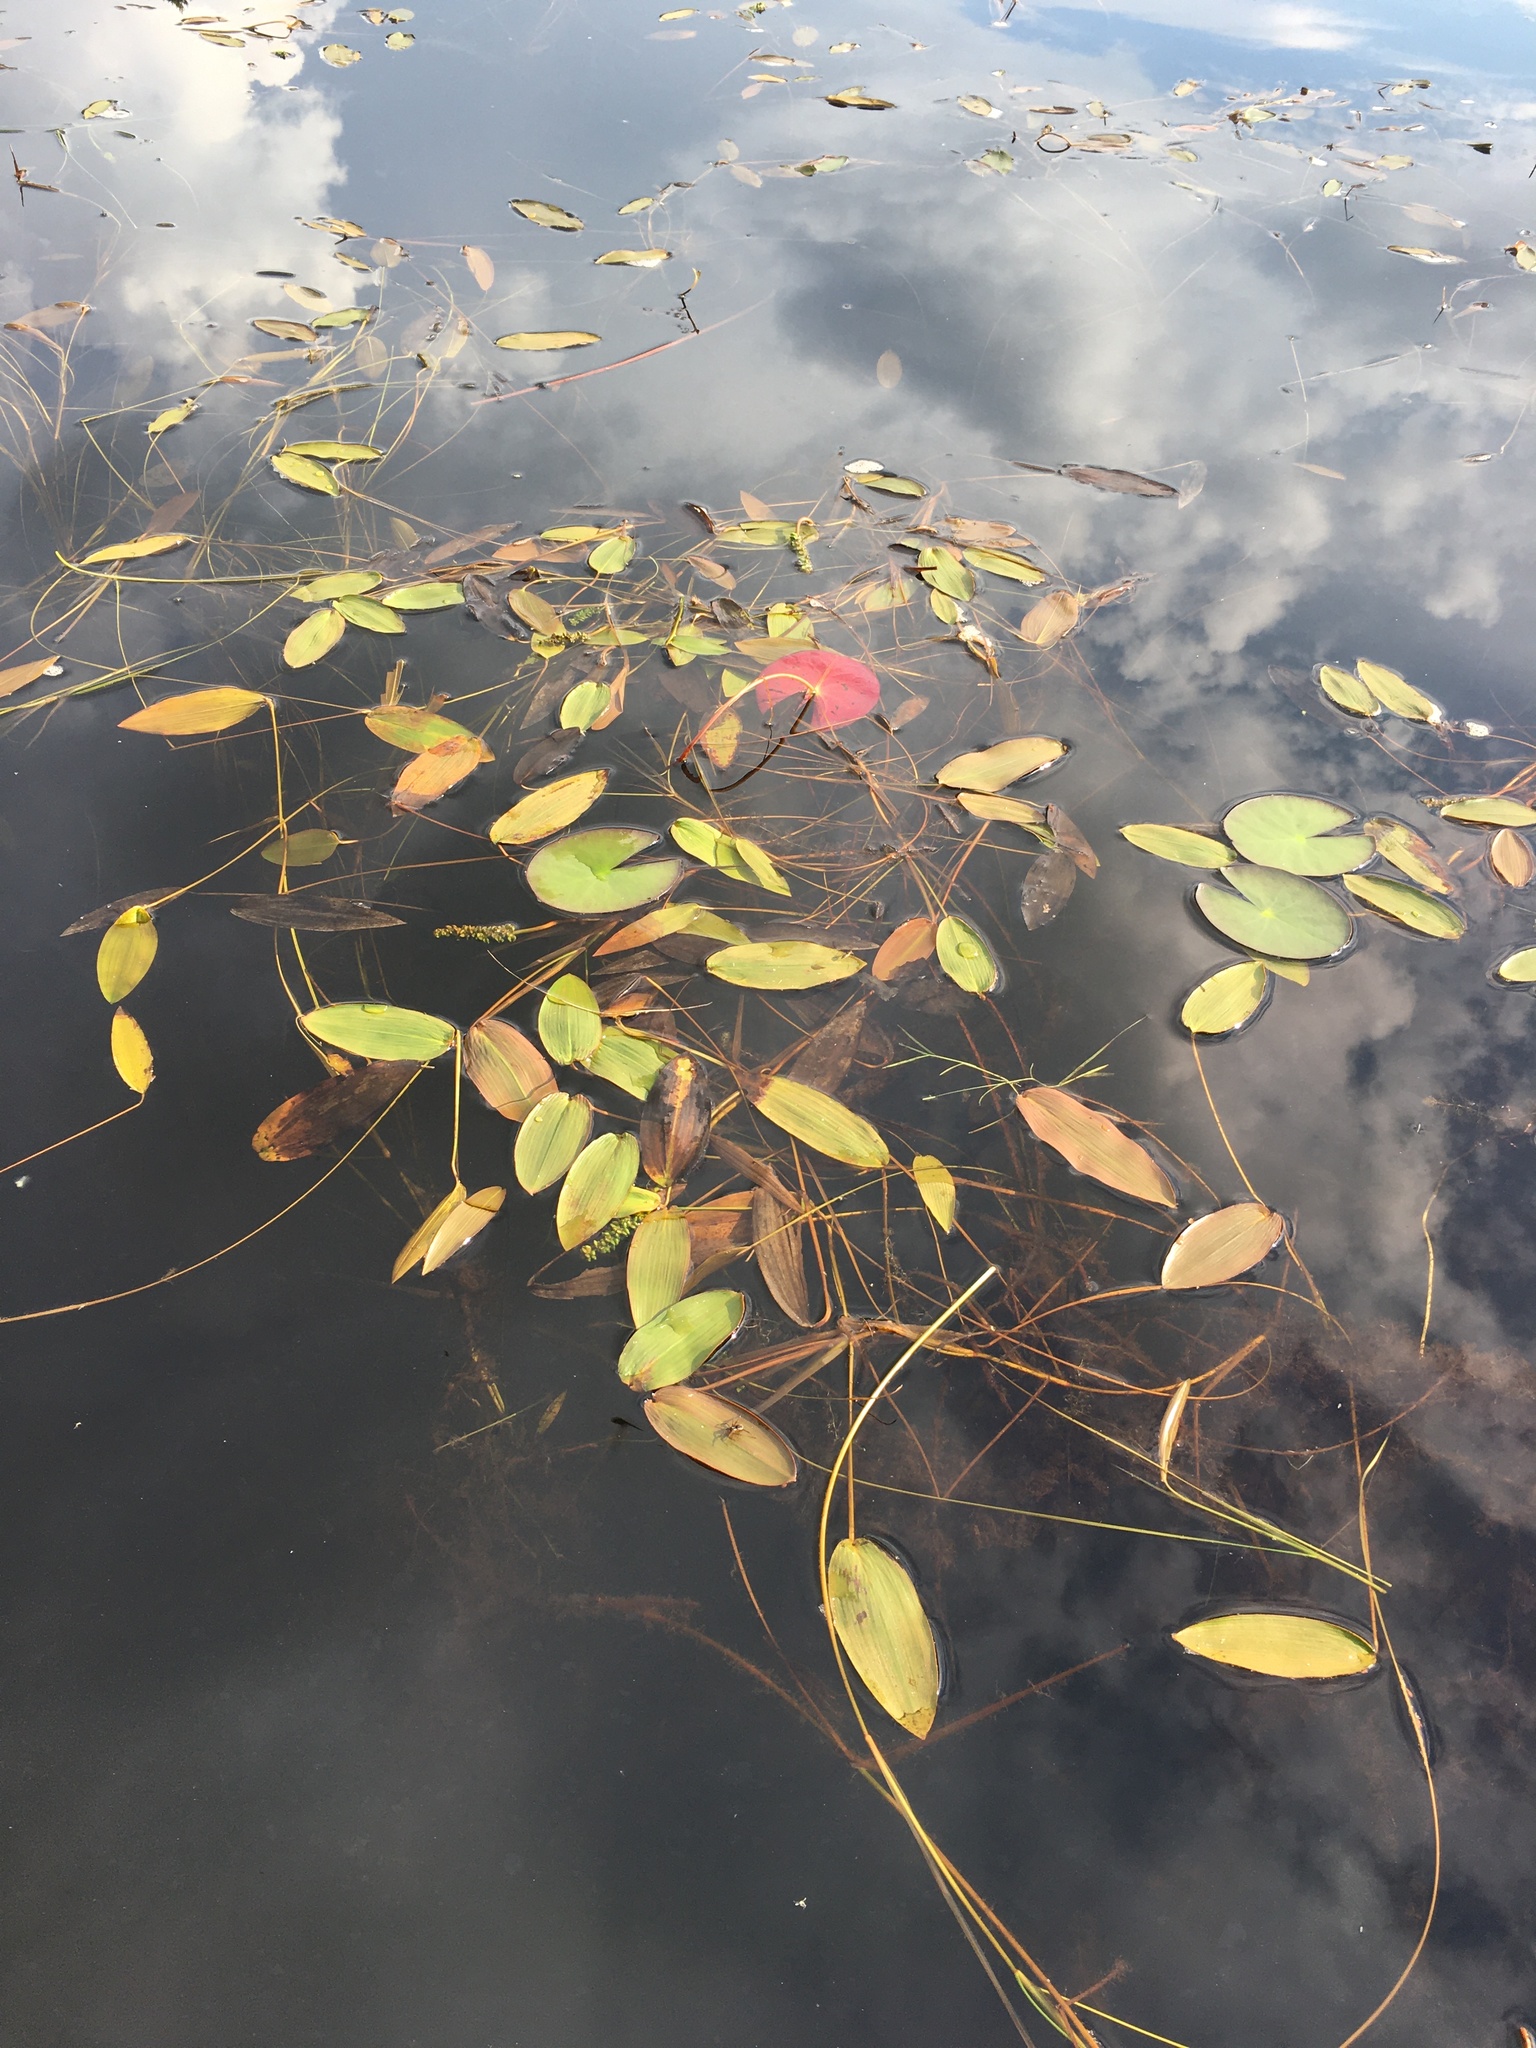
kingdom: Plantae
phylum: Tracheophyta
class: Liliopsida
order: Alismatales
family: Potamogetonaceae
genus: Potamogeton
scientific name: Potamogeton natans
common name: Broad-leaved pondweed
